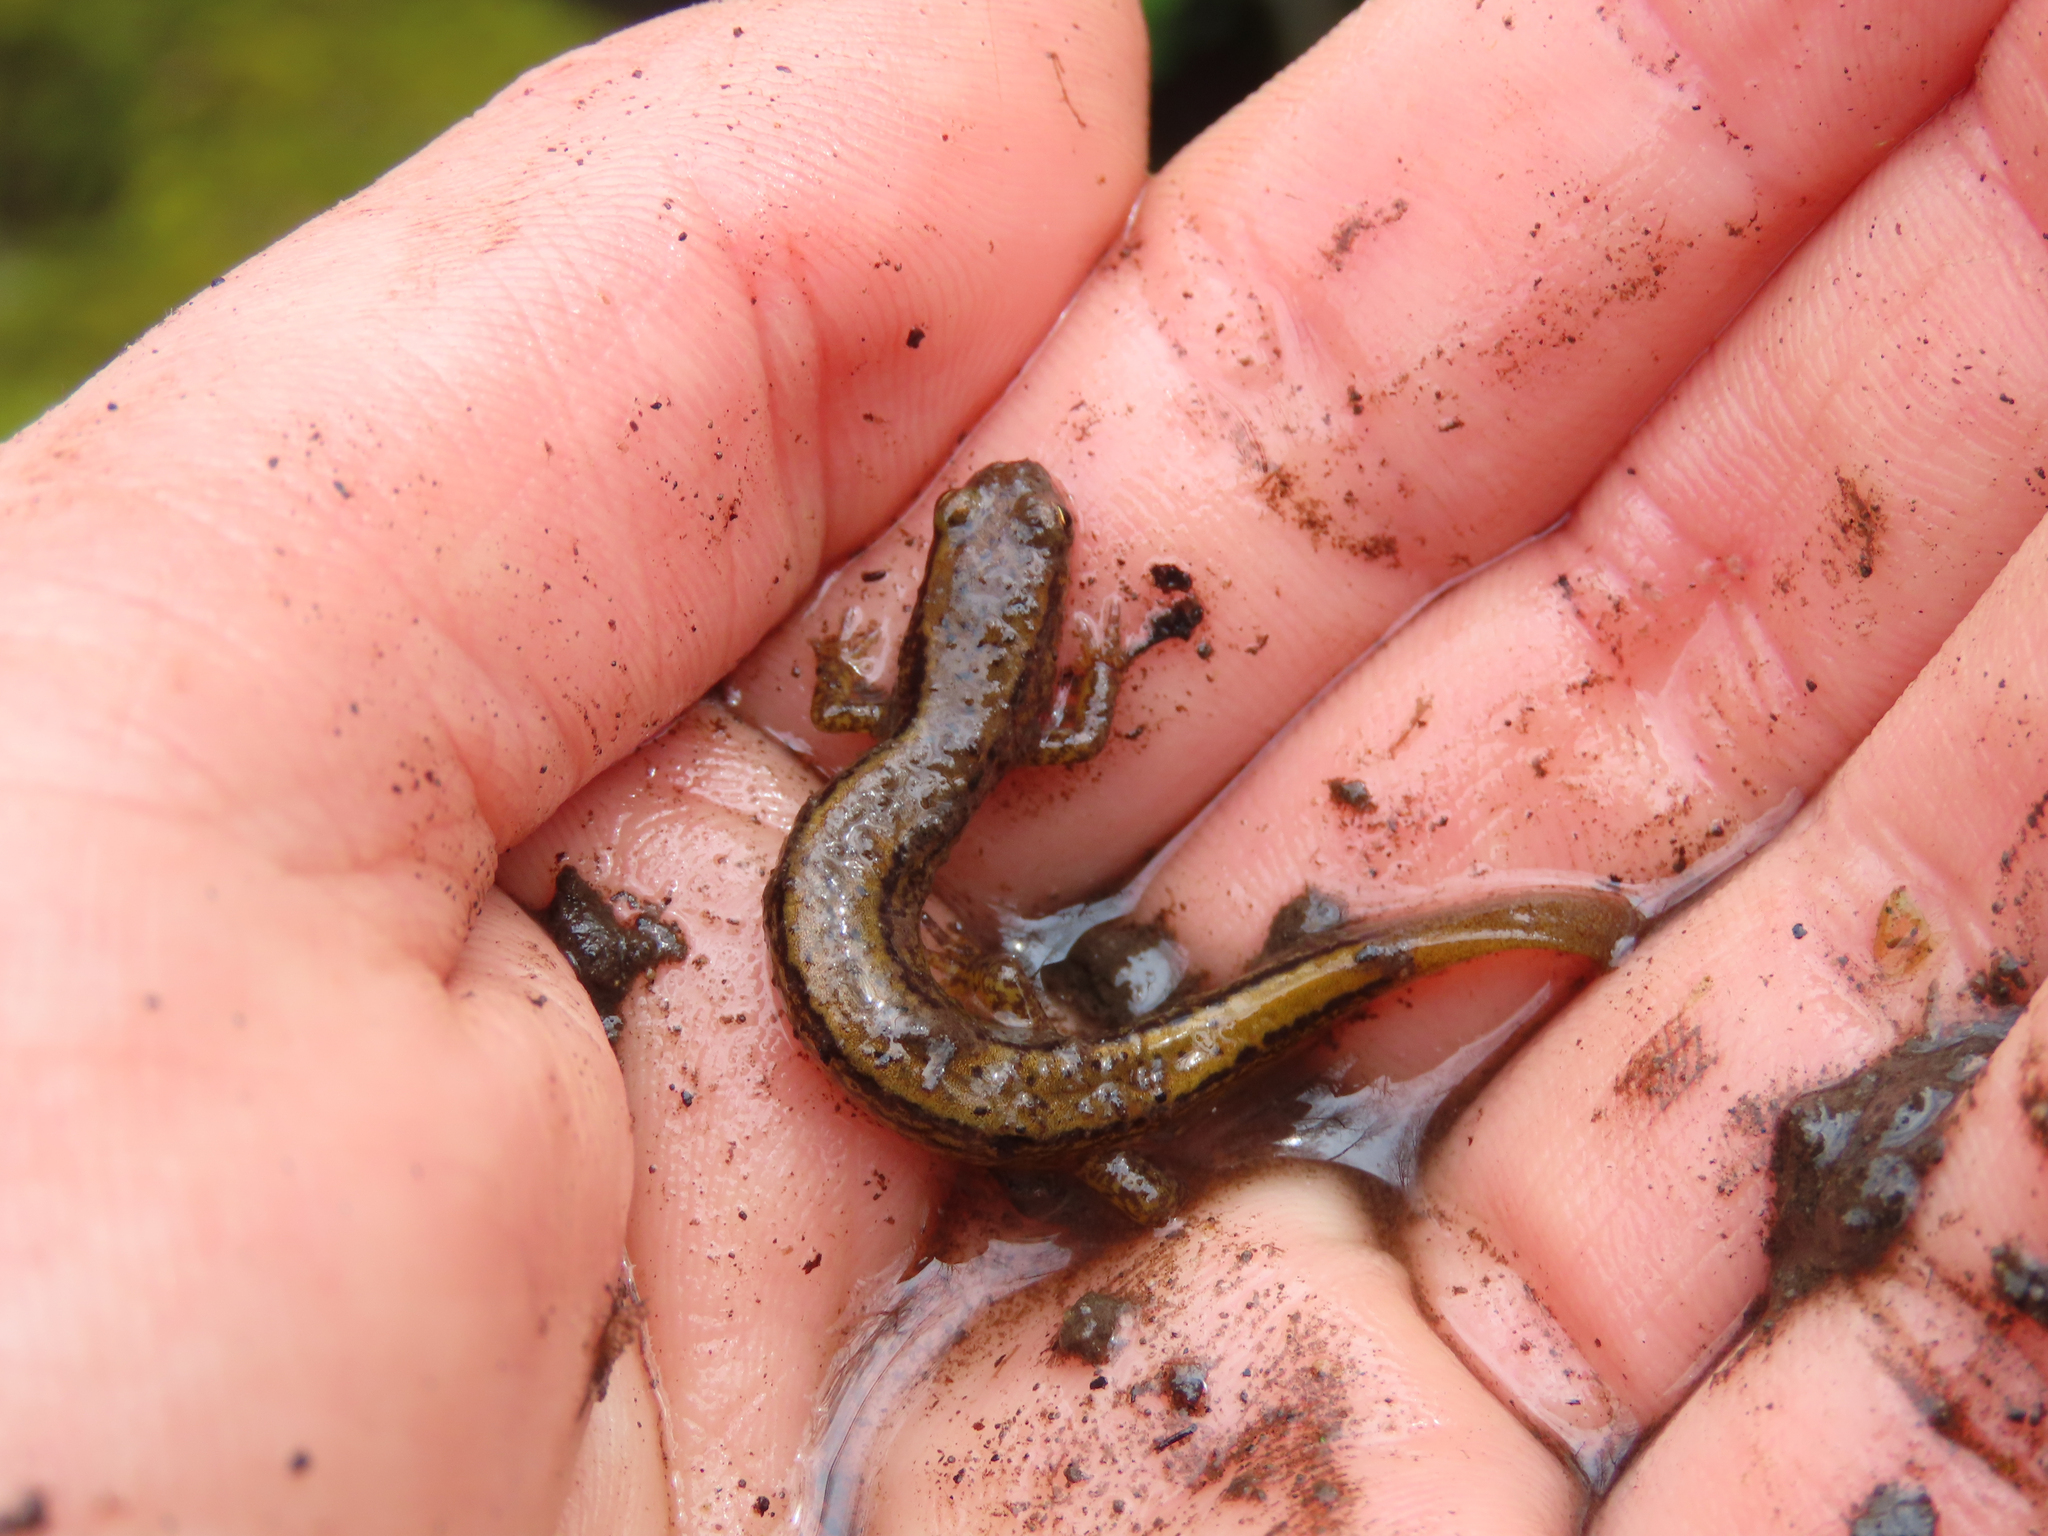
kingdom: Animalia
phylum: Chordata
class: Amphibia
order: Caudata
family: Plethodontidae
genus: Desmognathus
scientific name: Desmognathus ochrophaeus
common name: Allegheny mountain dusky salamander
